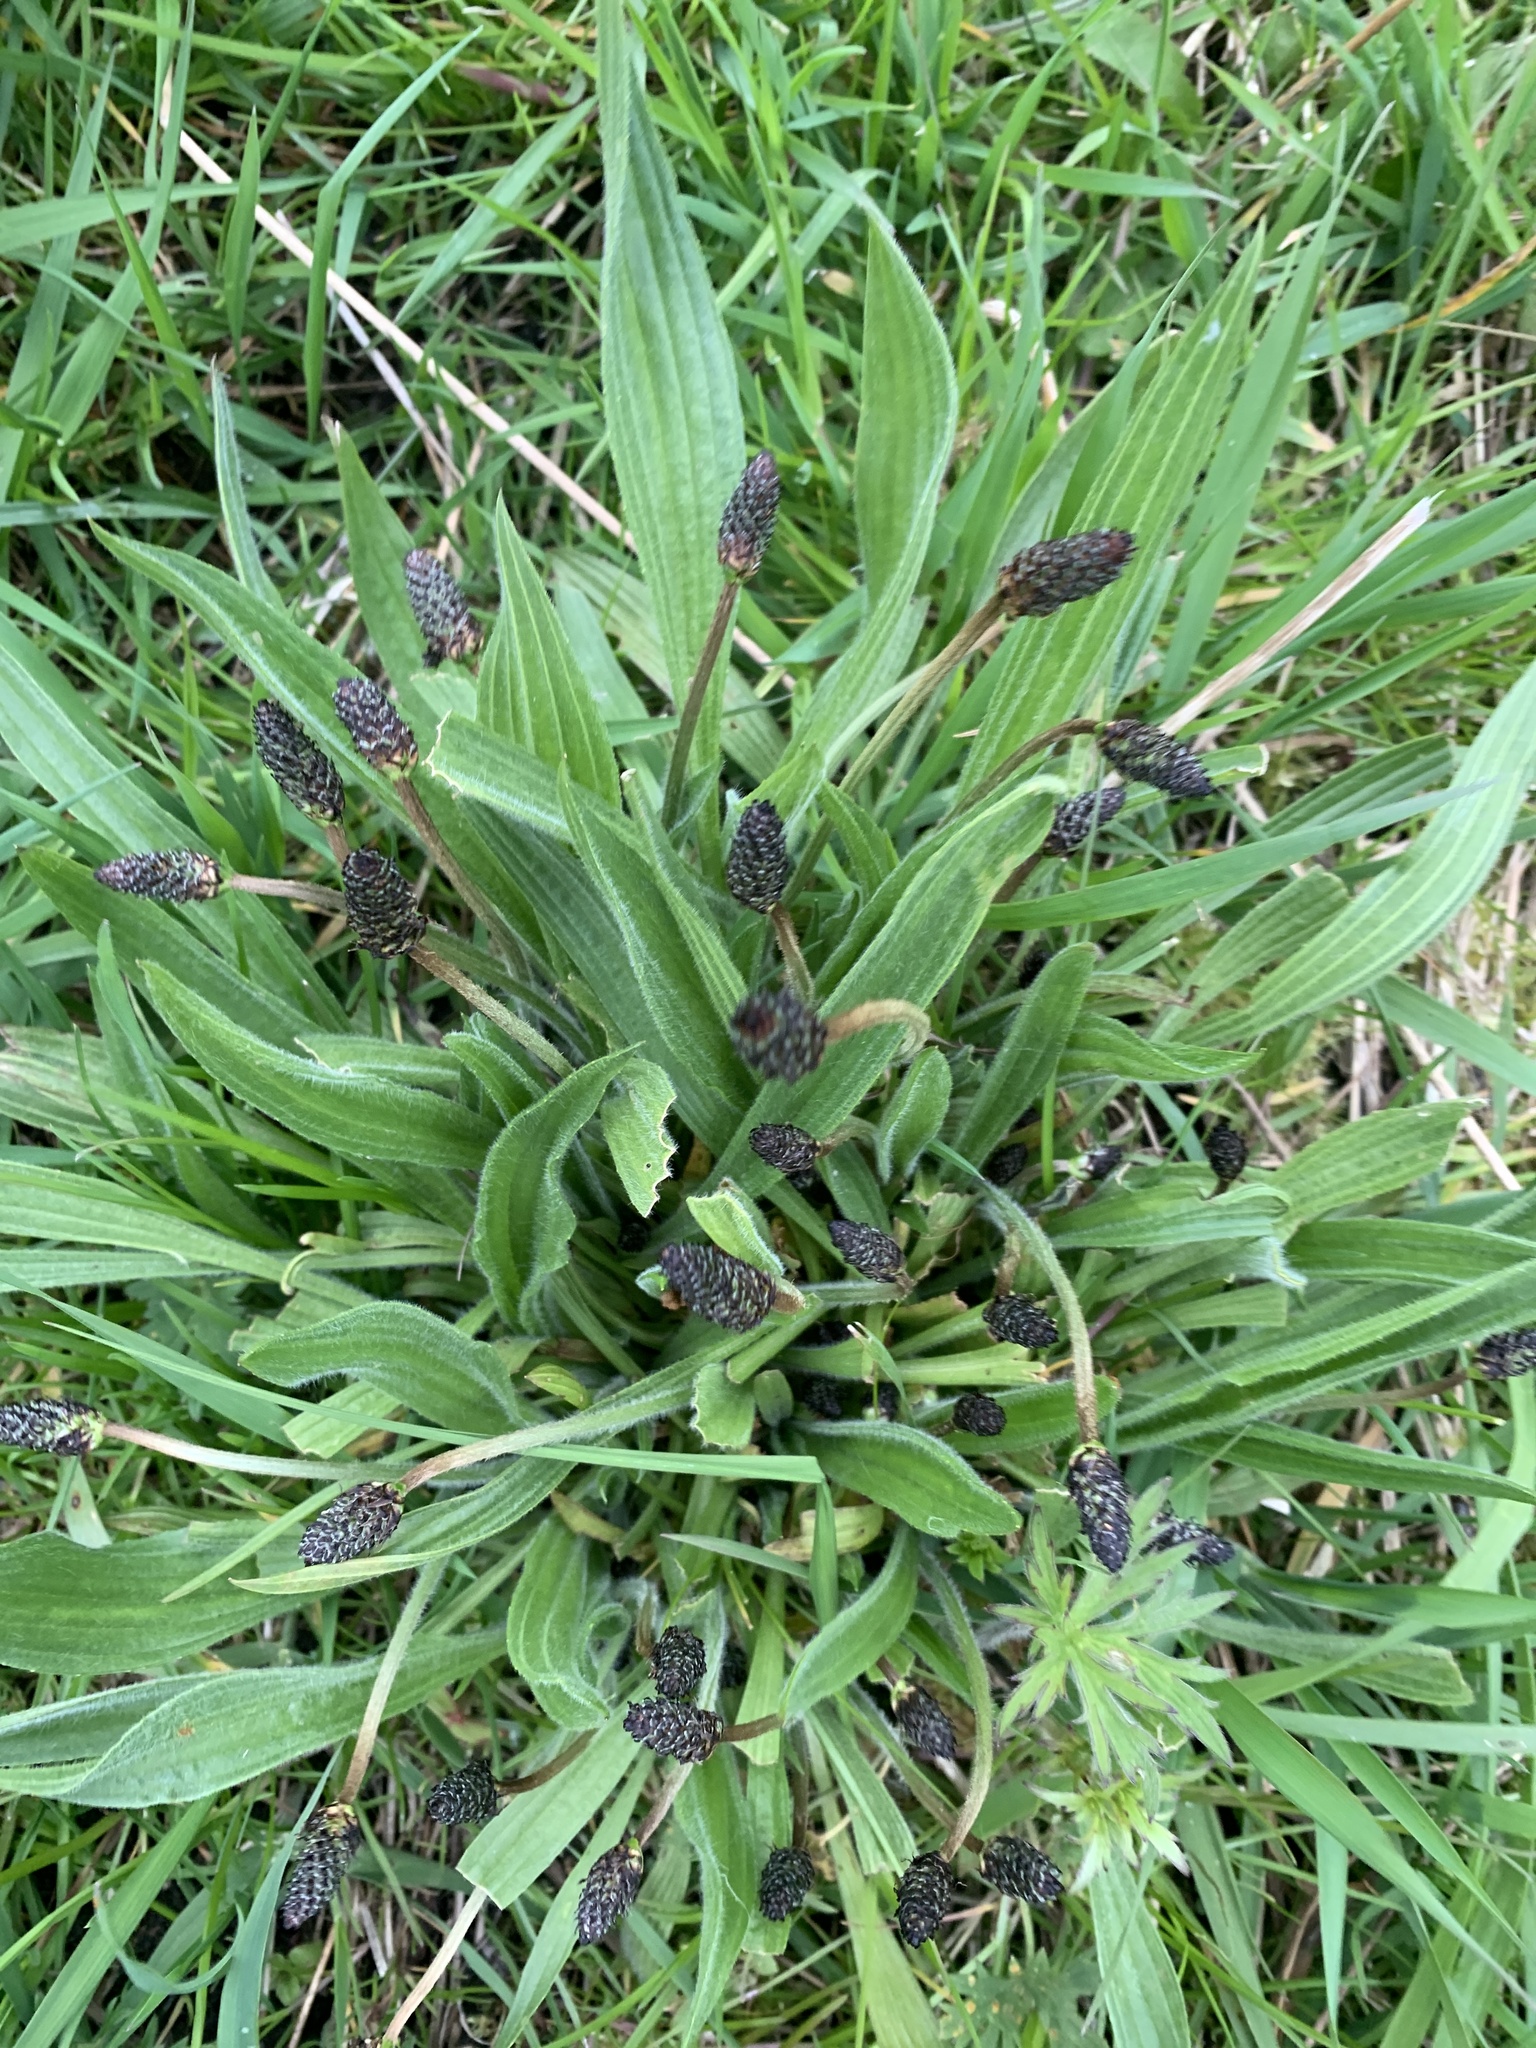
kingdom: Plantae
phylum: Tracheophyta
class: Magnoliopsida
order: Lamiales
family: Plantaginaceae
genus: Plantago
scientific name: Plantago lanceolata
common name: Ribwort plantain
